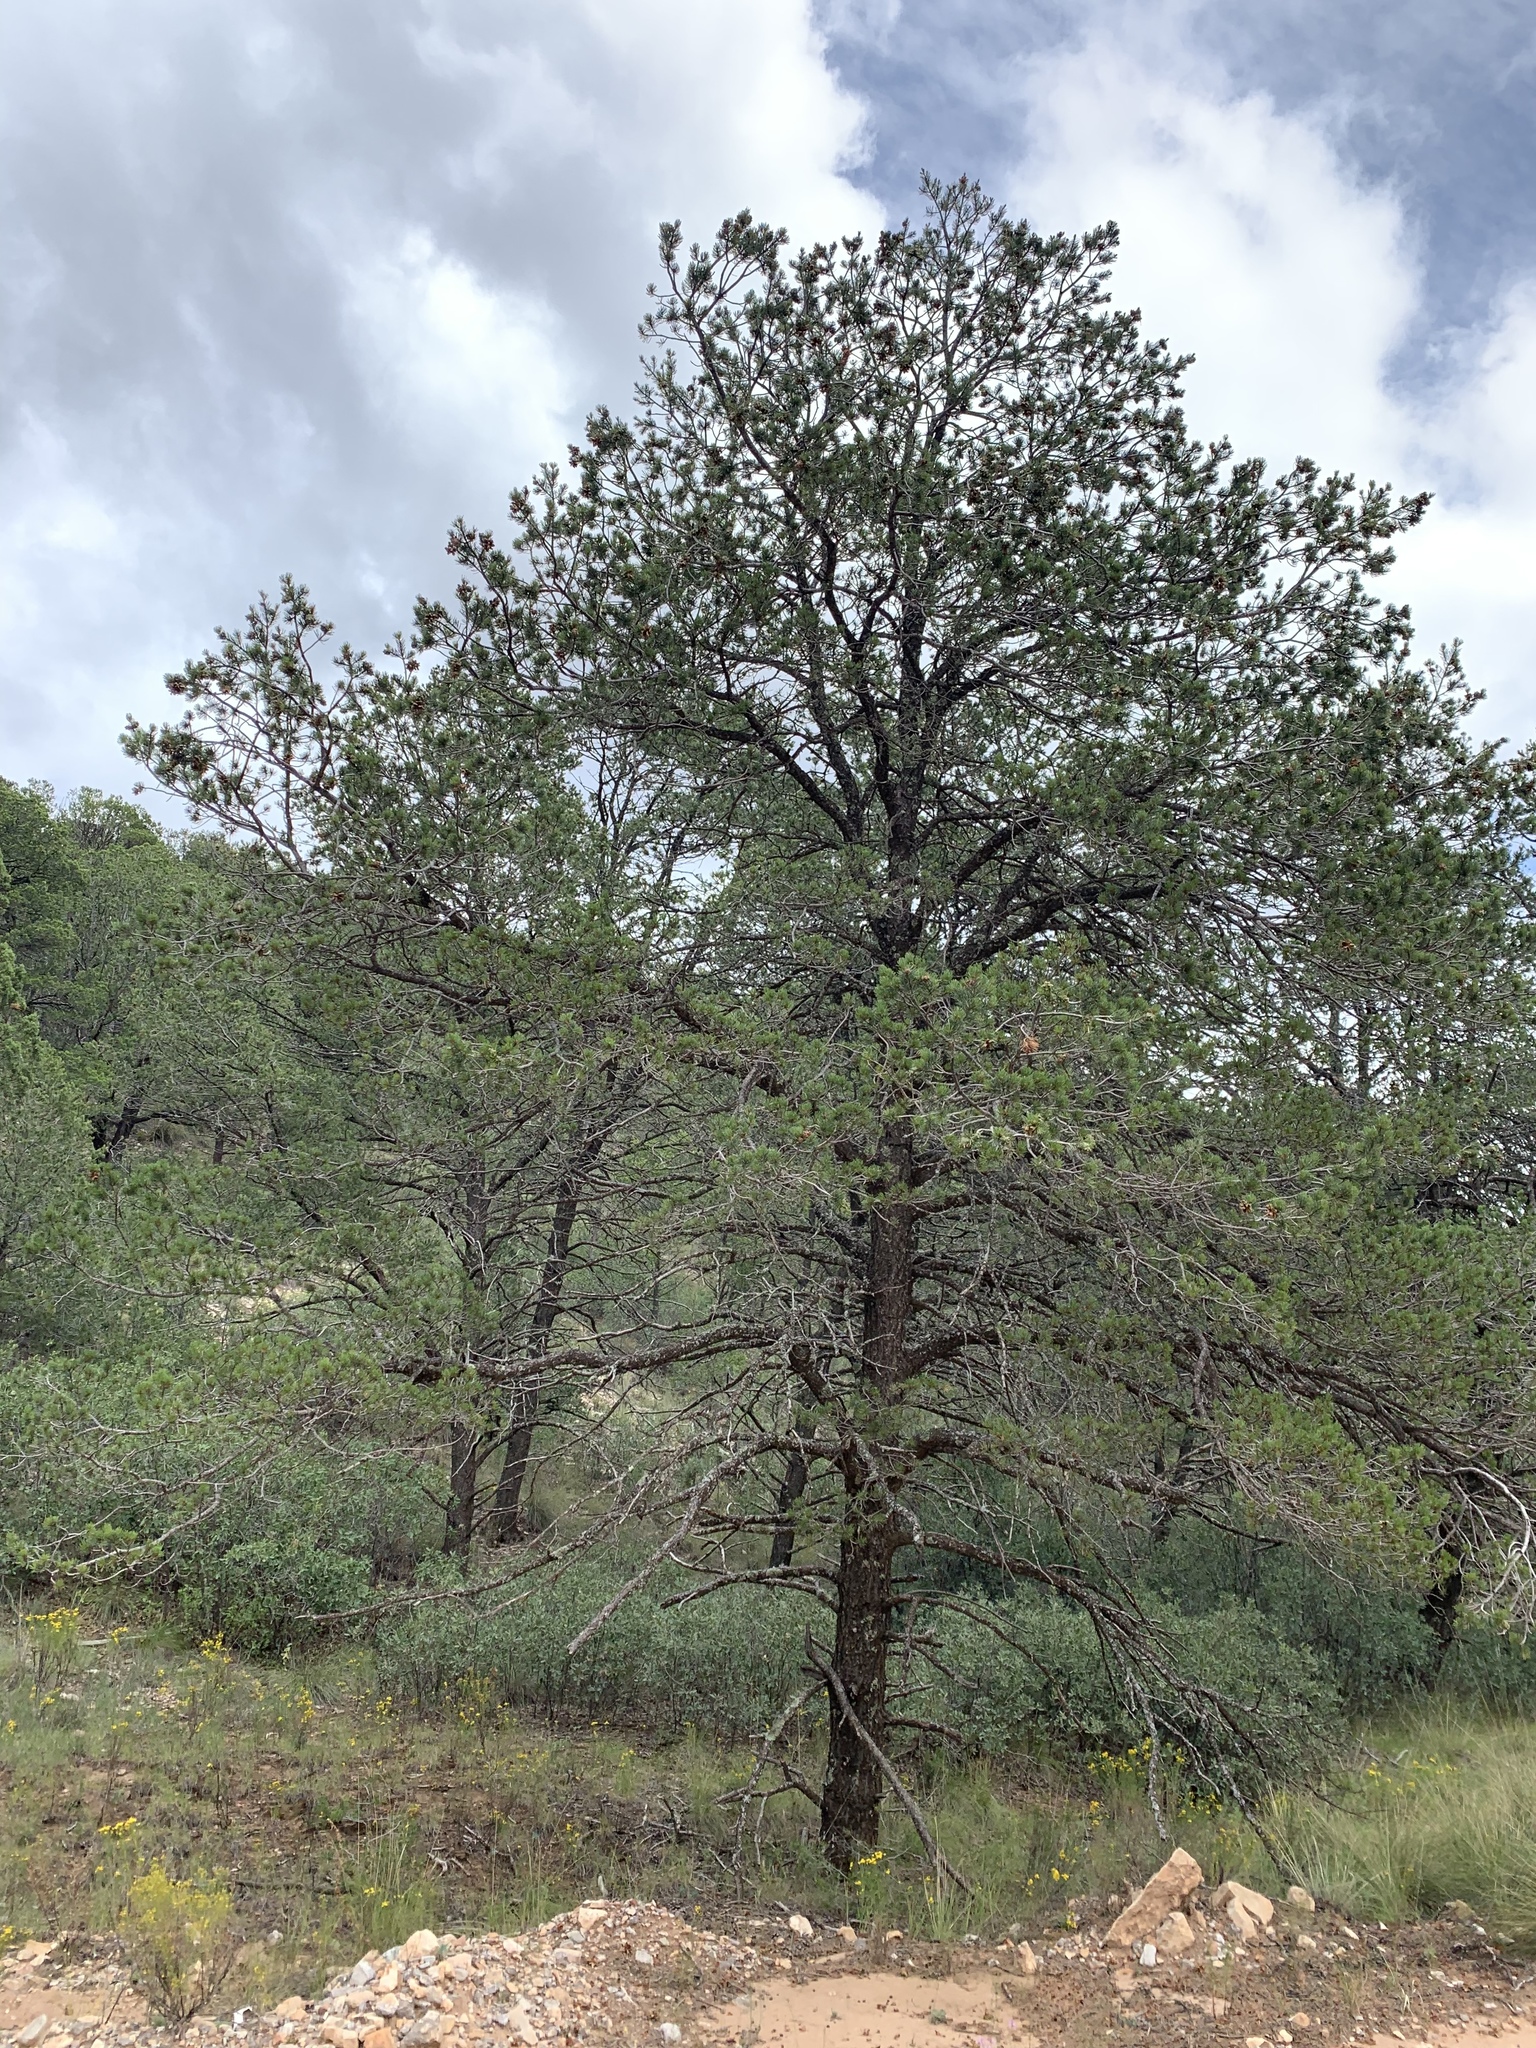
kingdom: Plantae
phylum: Tracheophyta
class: Pinopsida
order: Pinales
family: Pinaceae
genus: Pinus
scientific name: Pinus edulis
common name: Colorado pinyon
